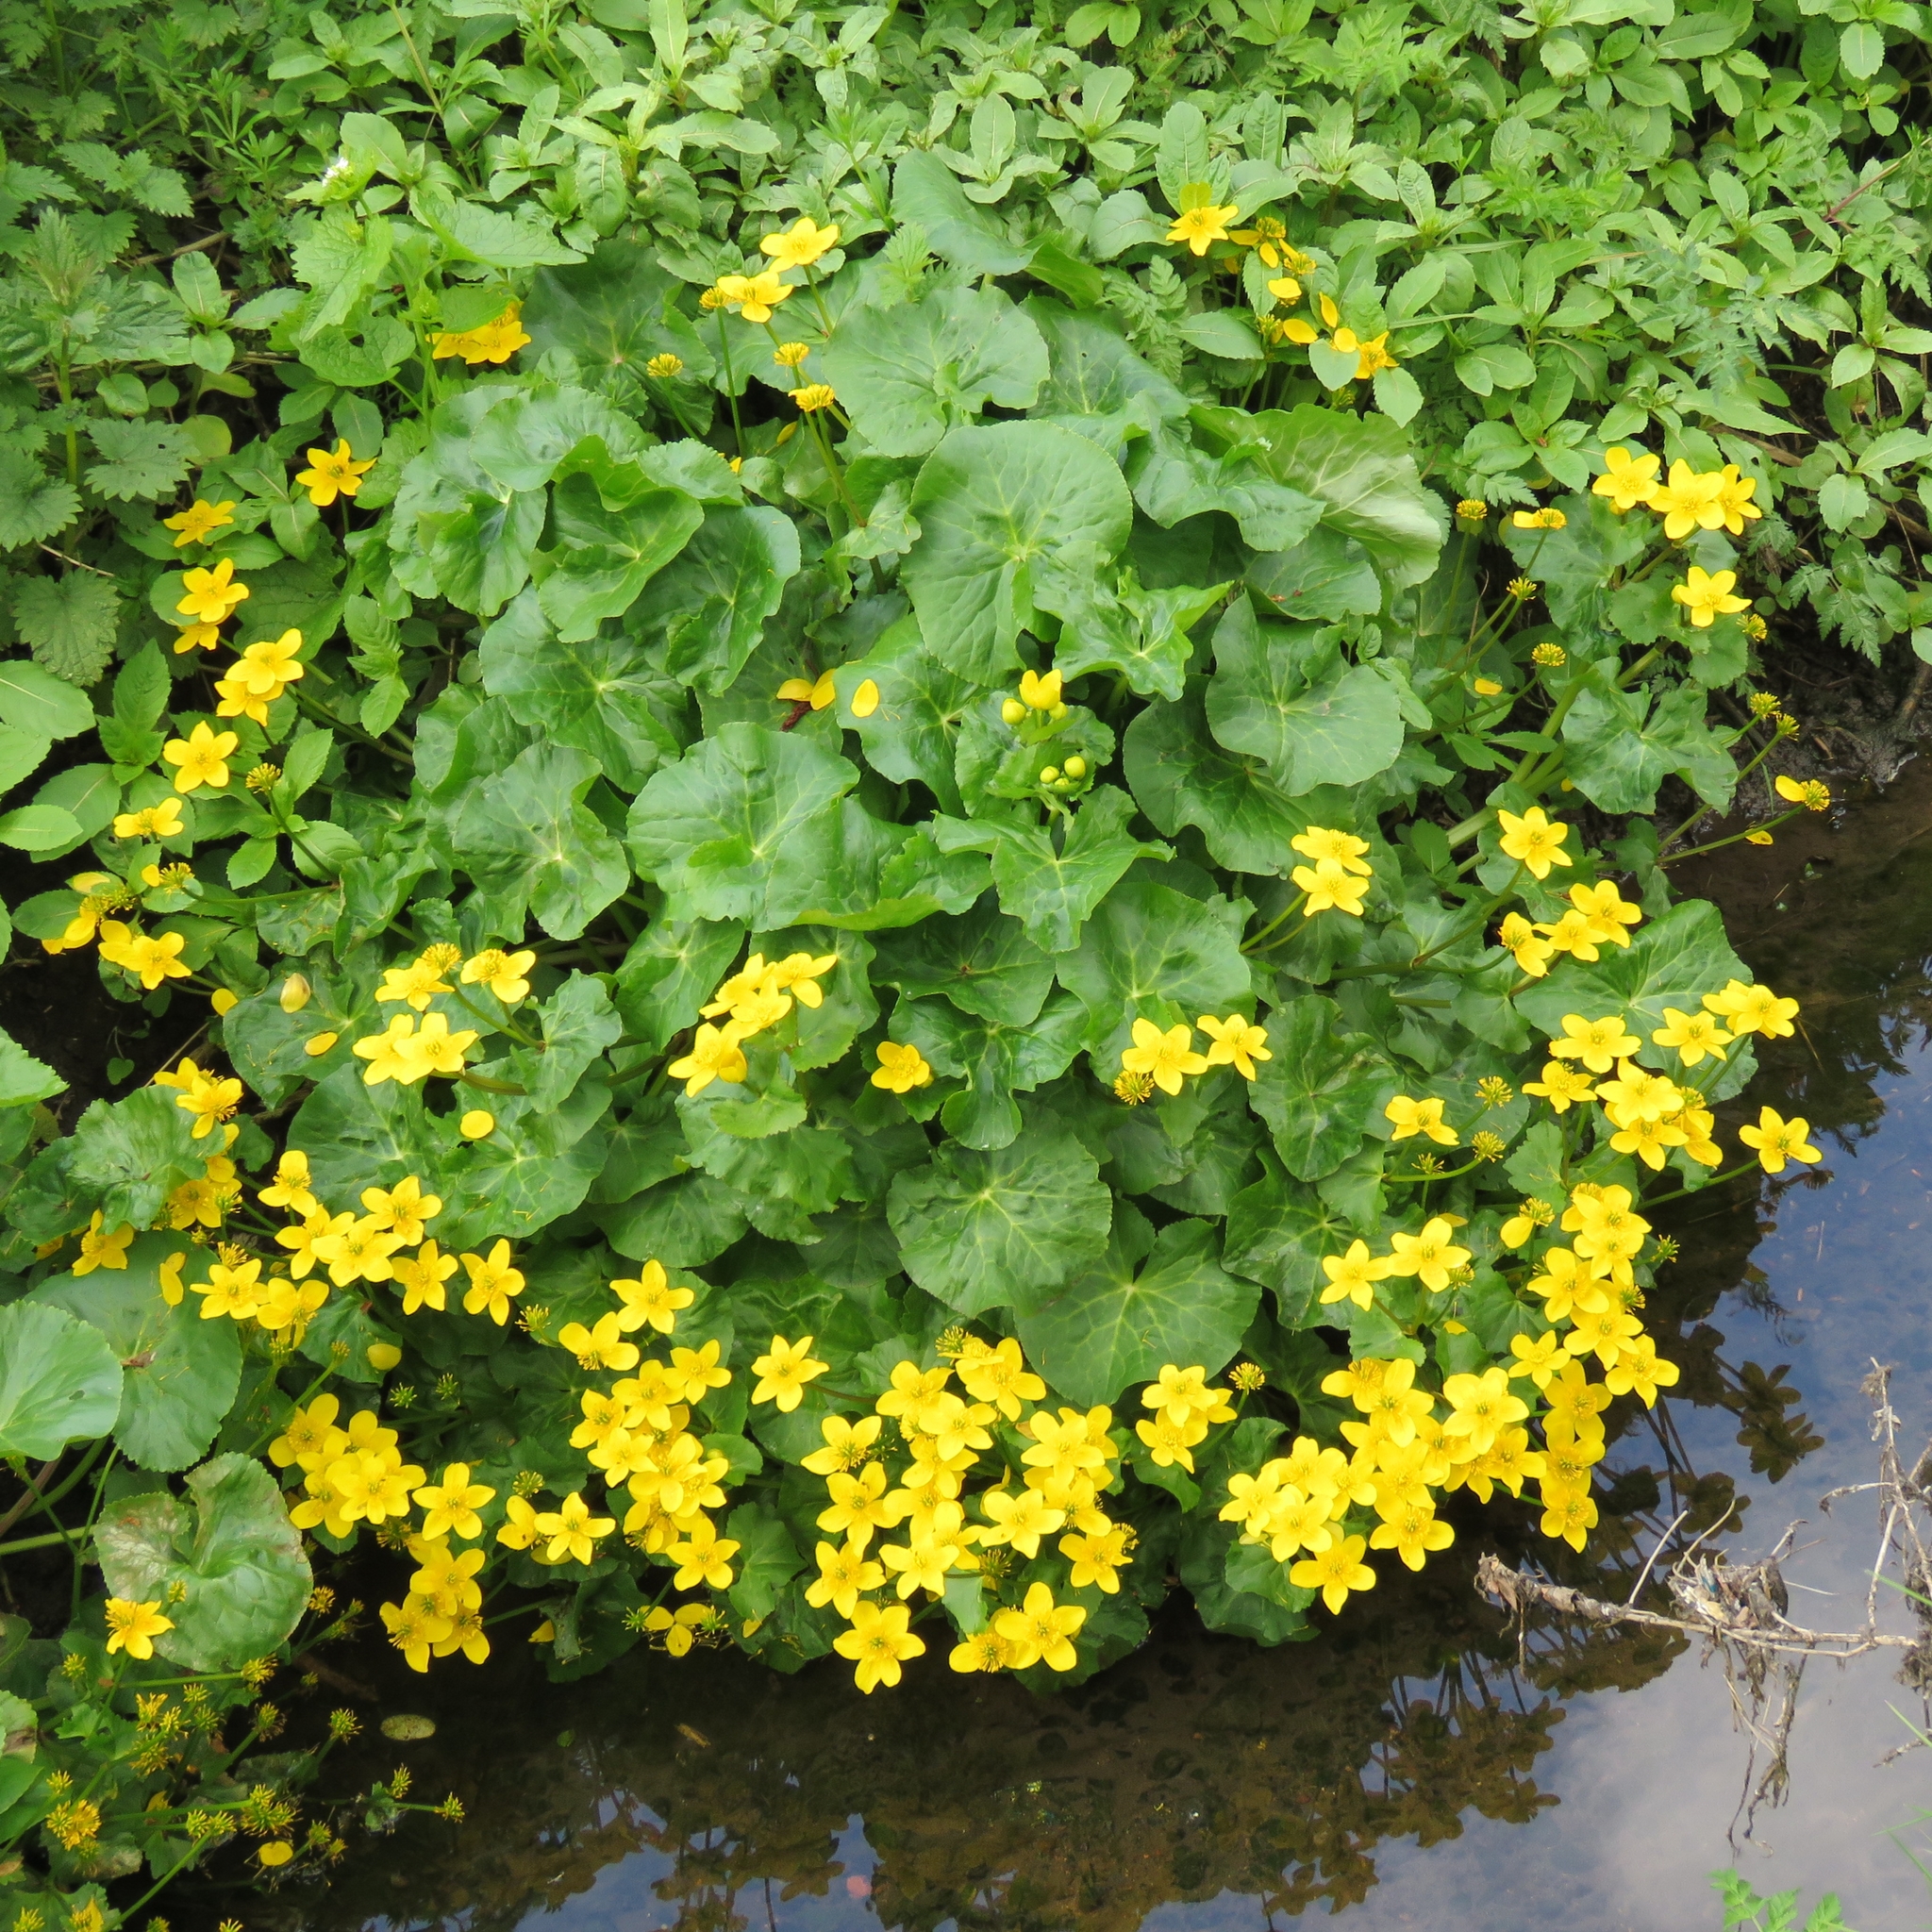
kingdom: Plantae
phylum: Tracheophyta
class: Magnoliopsida
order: Ranunculales
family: Ranunculaceae
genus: Caltha
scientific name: Caltha palustris
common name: Marsh marigold
